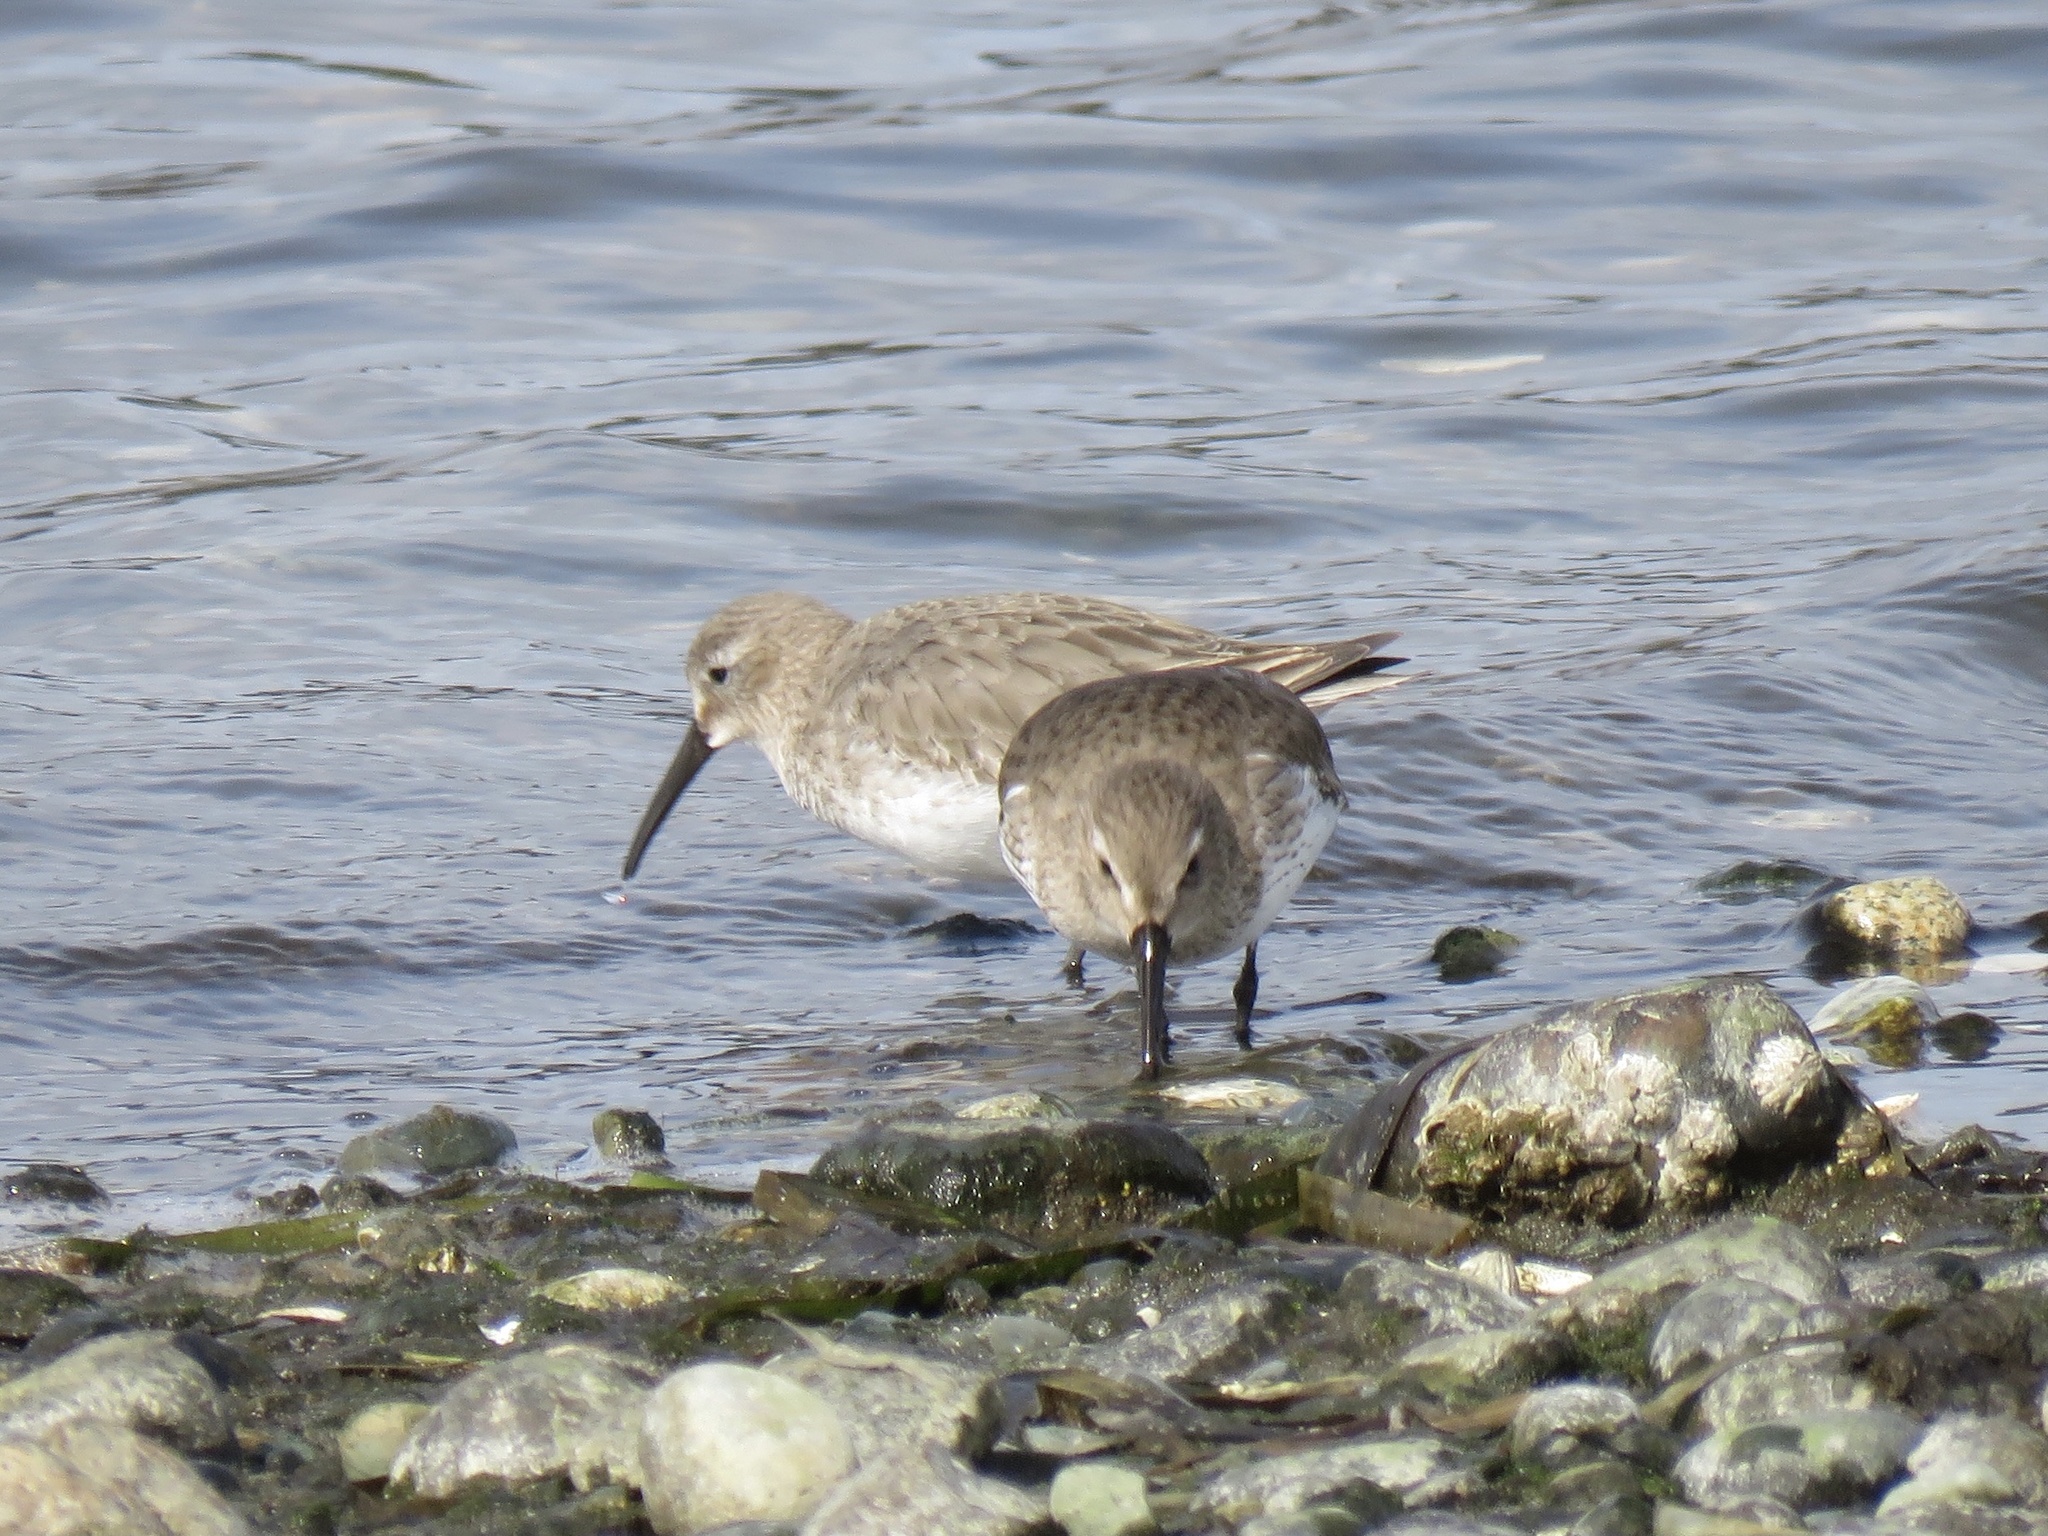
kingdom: Animalia
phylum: Chordata
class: Aves
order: Charadriiformes
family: Scolopacidae
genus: Calidris
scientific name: Calidris alpina
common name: Dunlin
